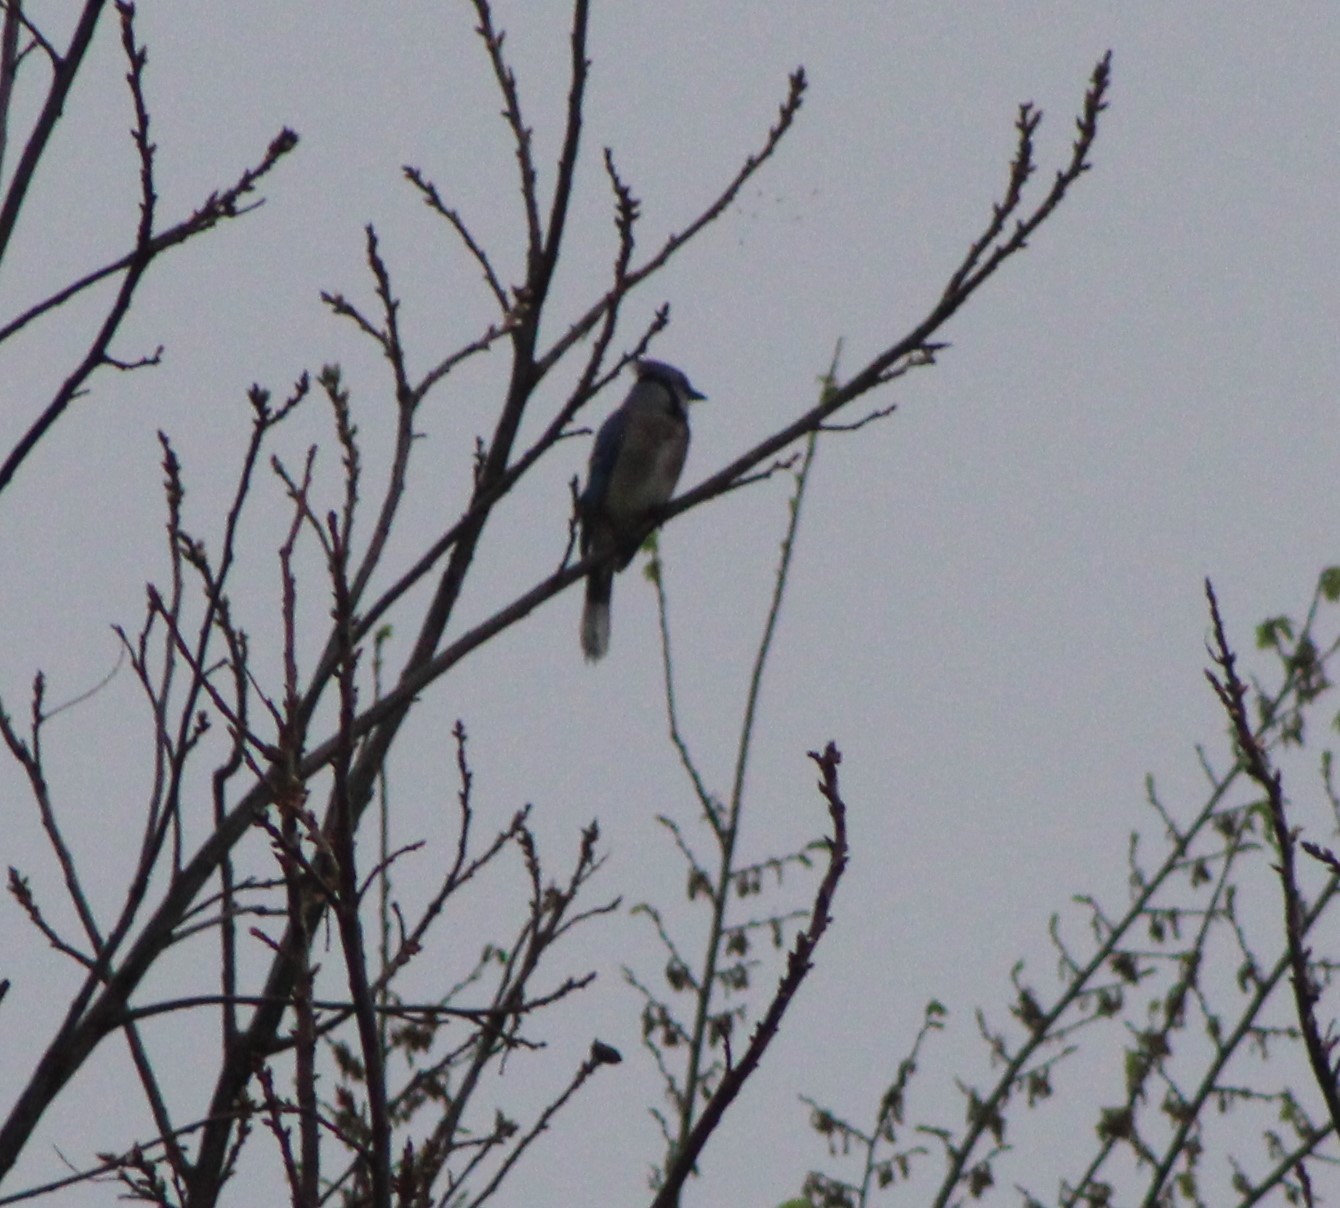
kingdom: Animalia
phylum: Chordata
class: Aves
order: Passeriformes
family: Corvidae
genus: Cyanocitta
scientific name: Cyanocitta cristata
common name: Blue jay
